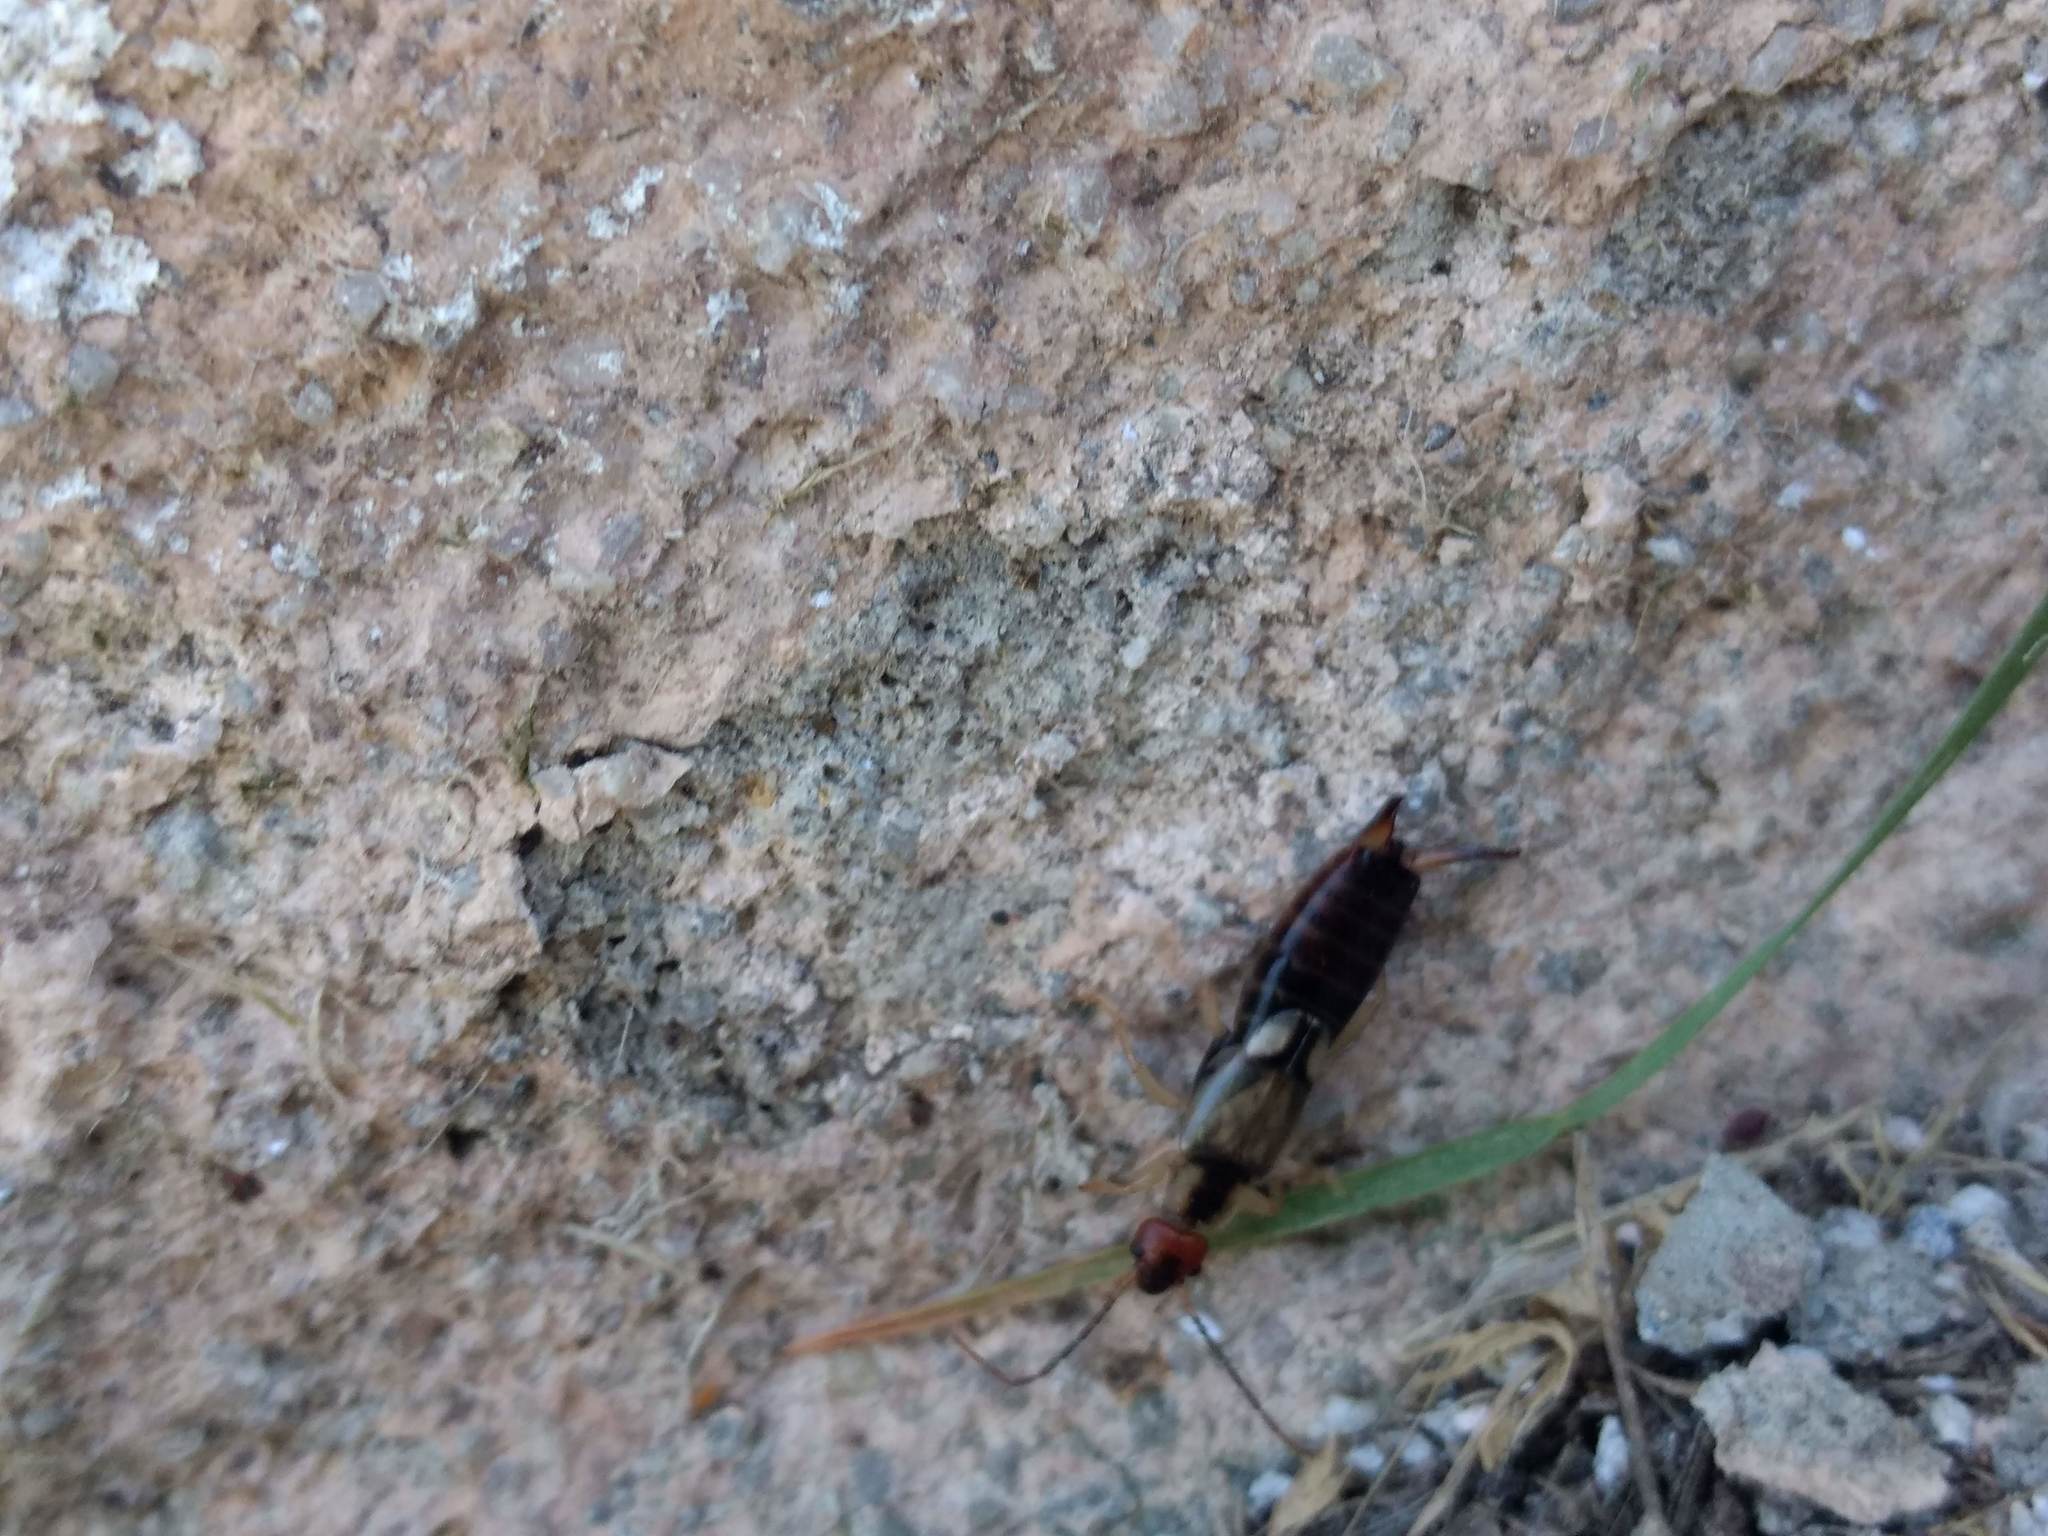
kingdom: Animalia
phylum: Arthropoda
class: Insecta
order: Dermaptera
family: Forficulidae
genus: Forficula
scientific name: Forficula
